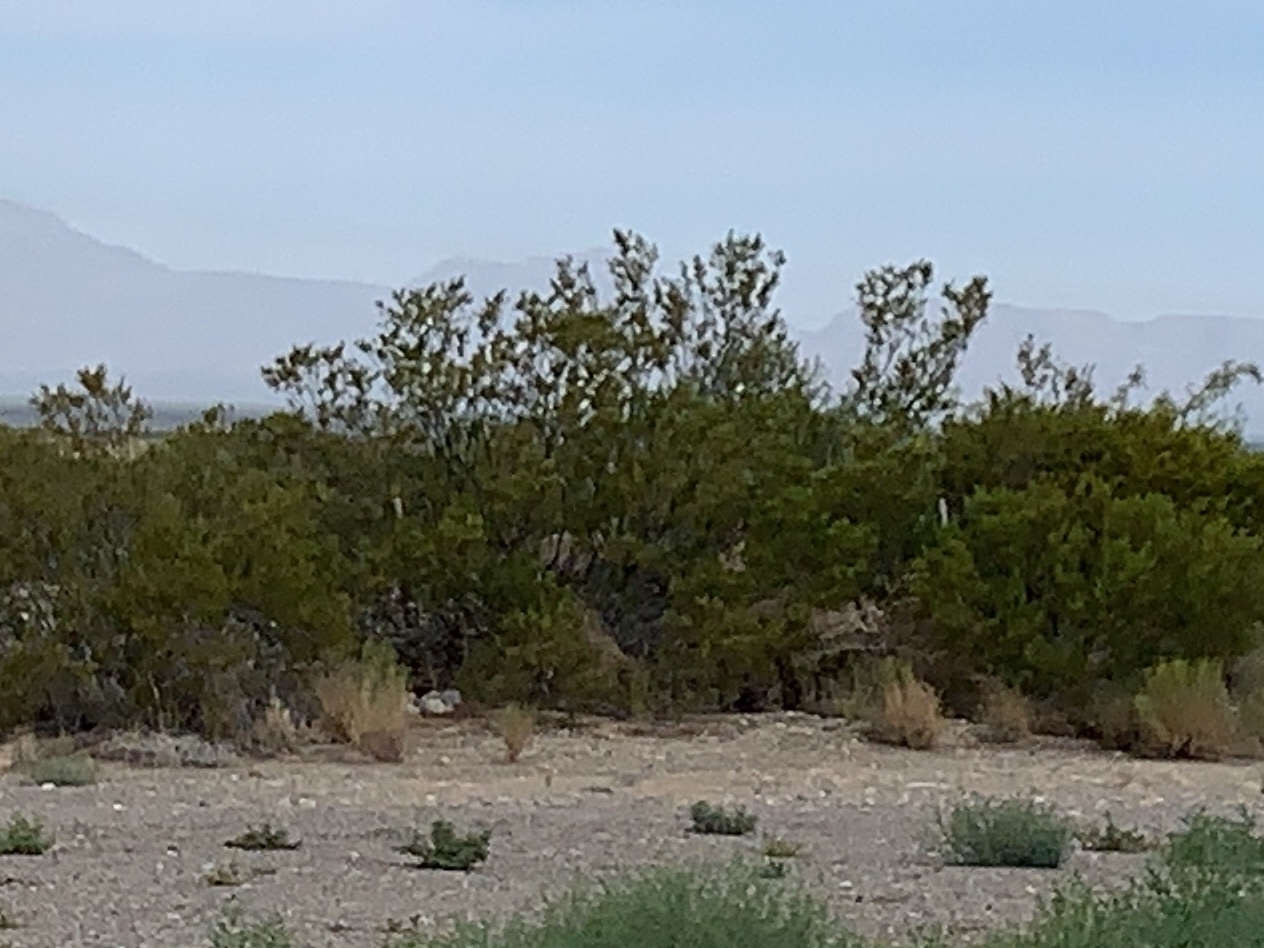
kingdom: Plantae
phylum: Tracheophyta
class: Magnoliopsida
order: Zygophyllales
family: Zygophyllaceae
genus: Larrea
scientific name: Larrea tridentata
